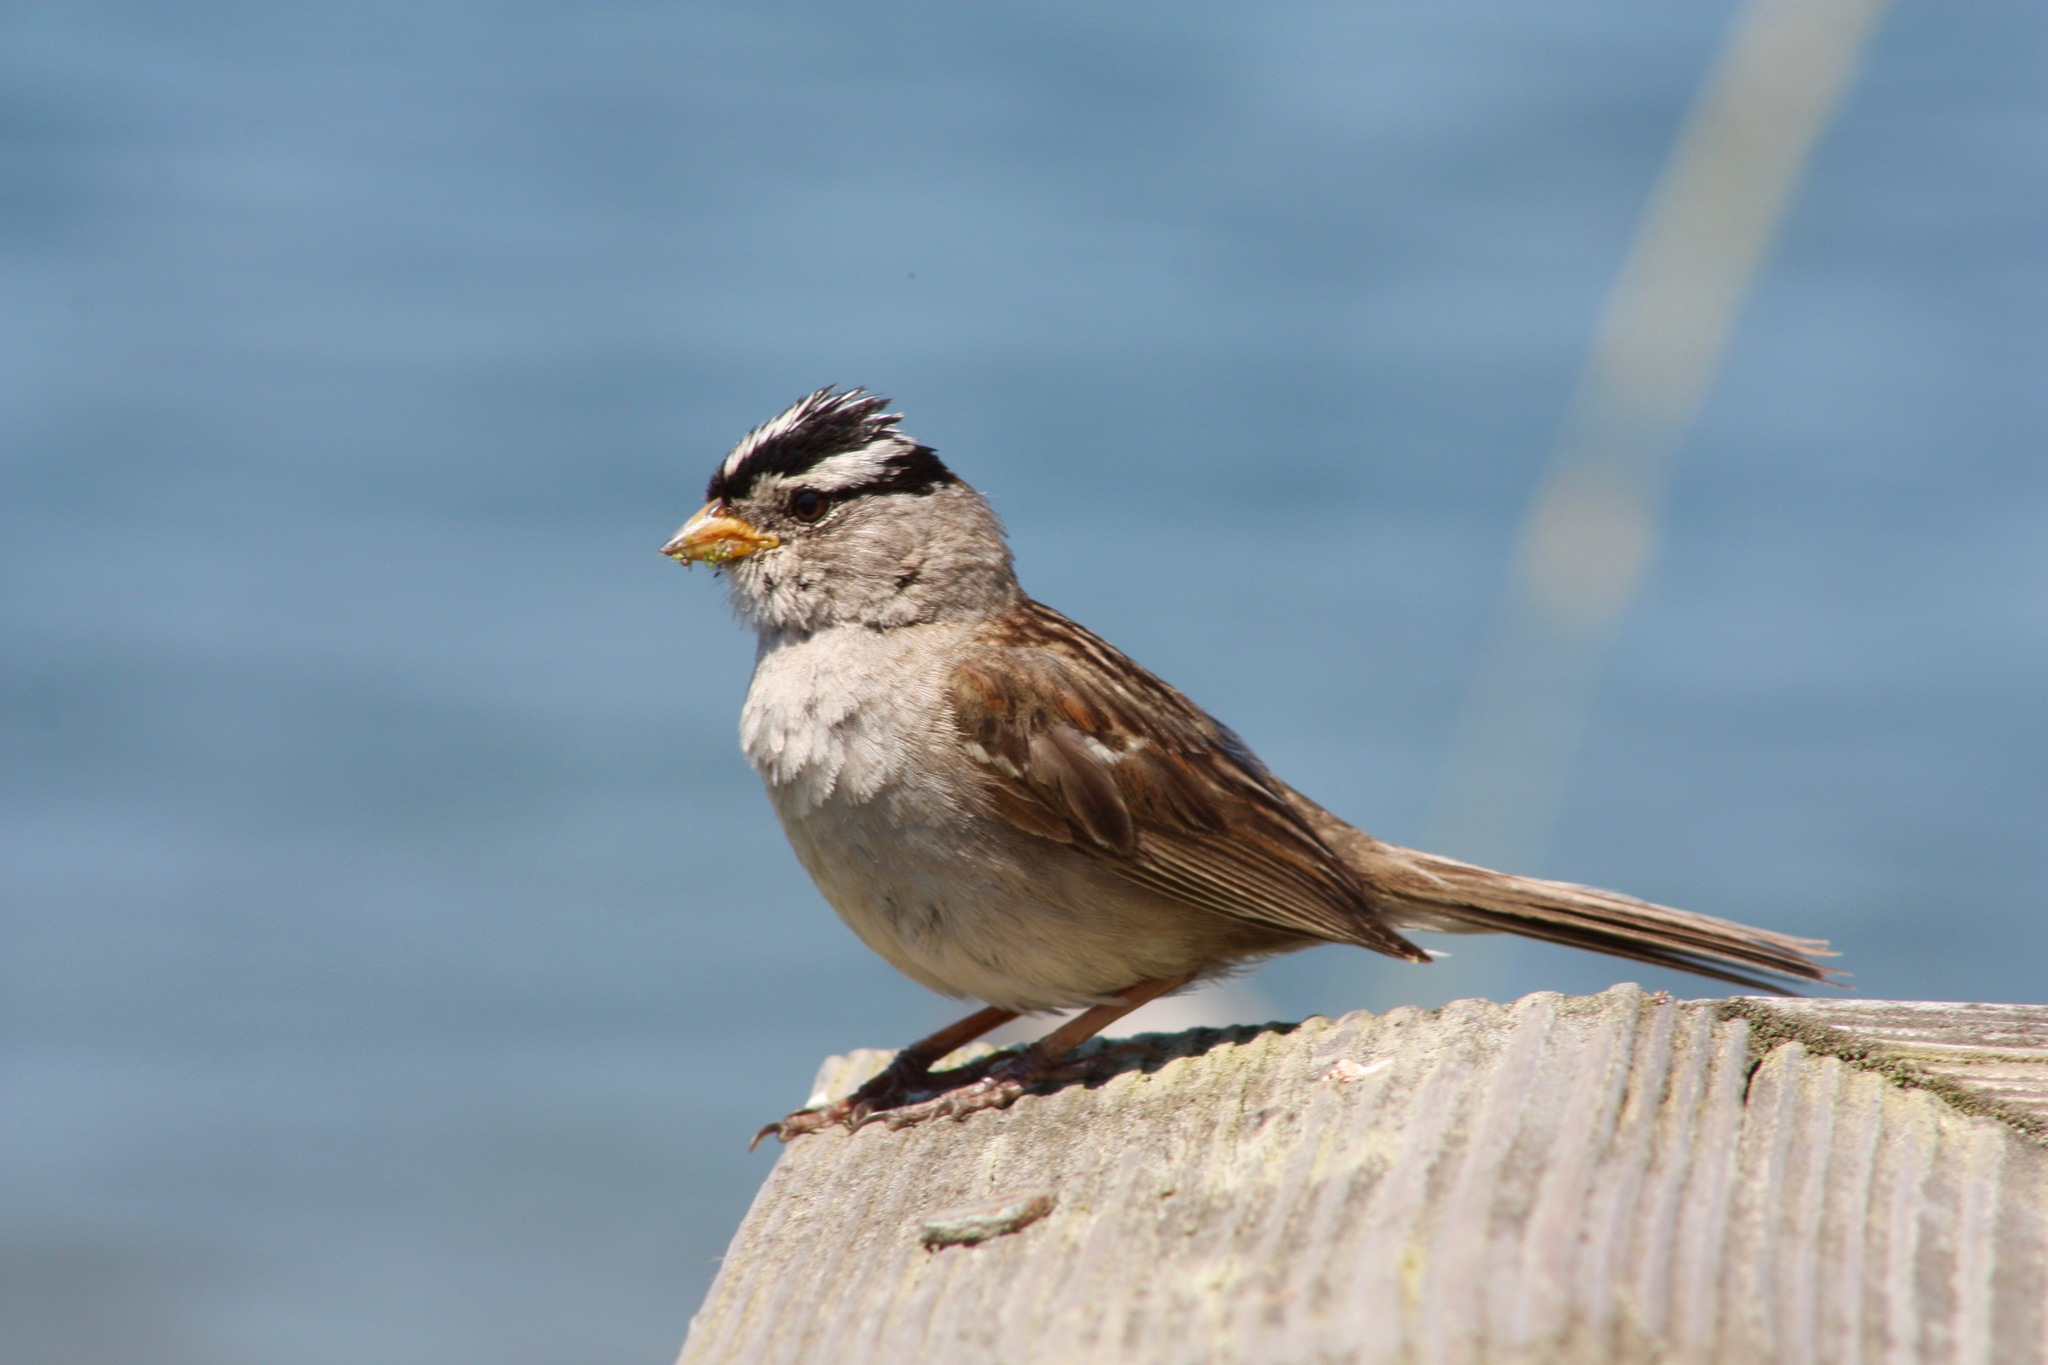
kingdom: Animalia
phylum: Chordata
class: Aves
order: Passeriformes
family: Passerellidae
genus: Zonotrichia
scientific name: Zonotrichia leucophrys
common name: White-crowned sparrow
